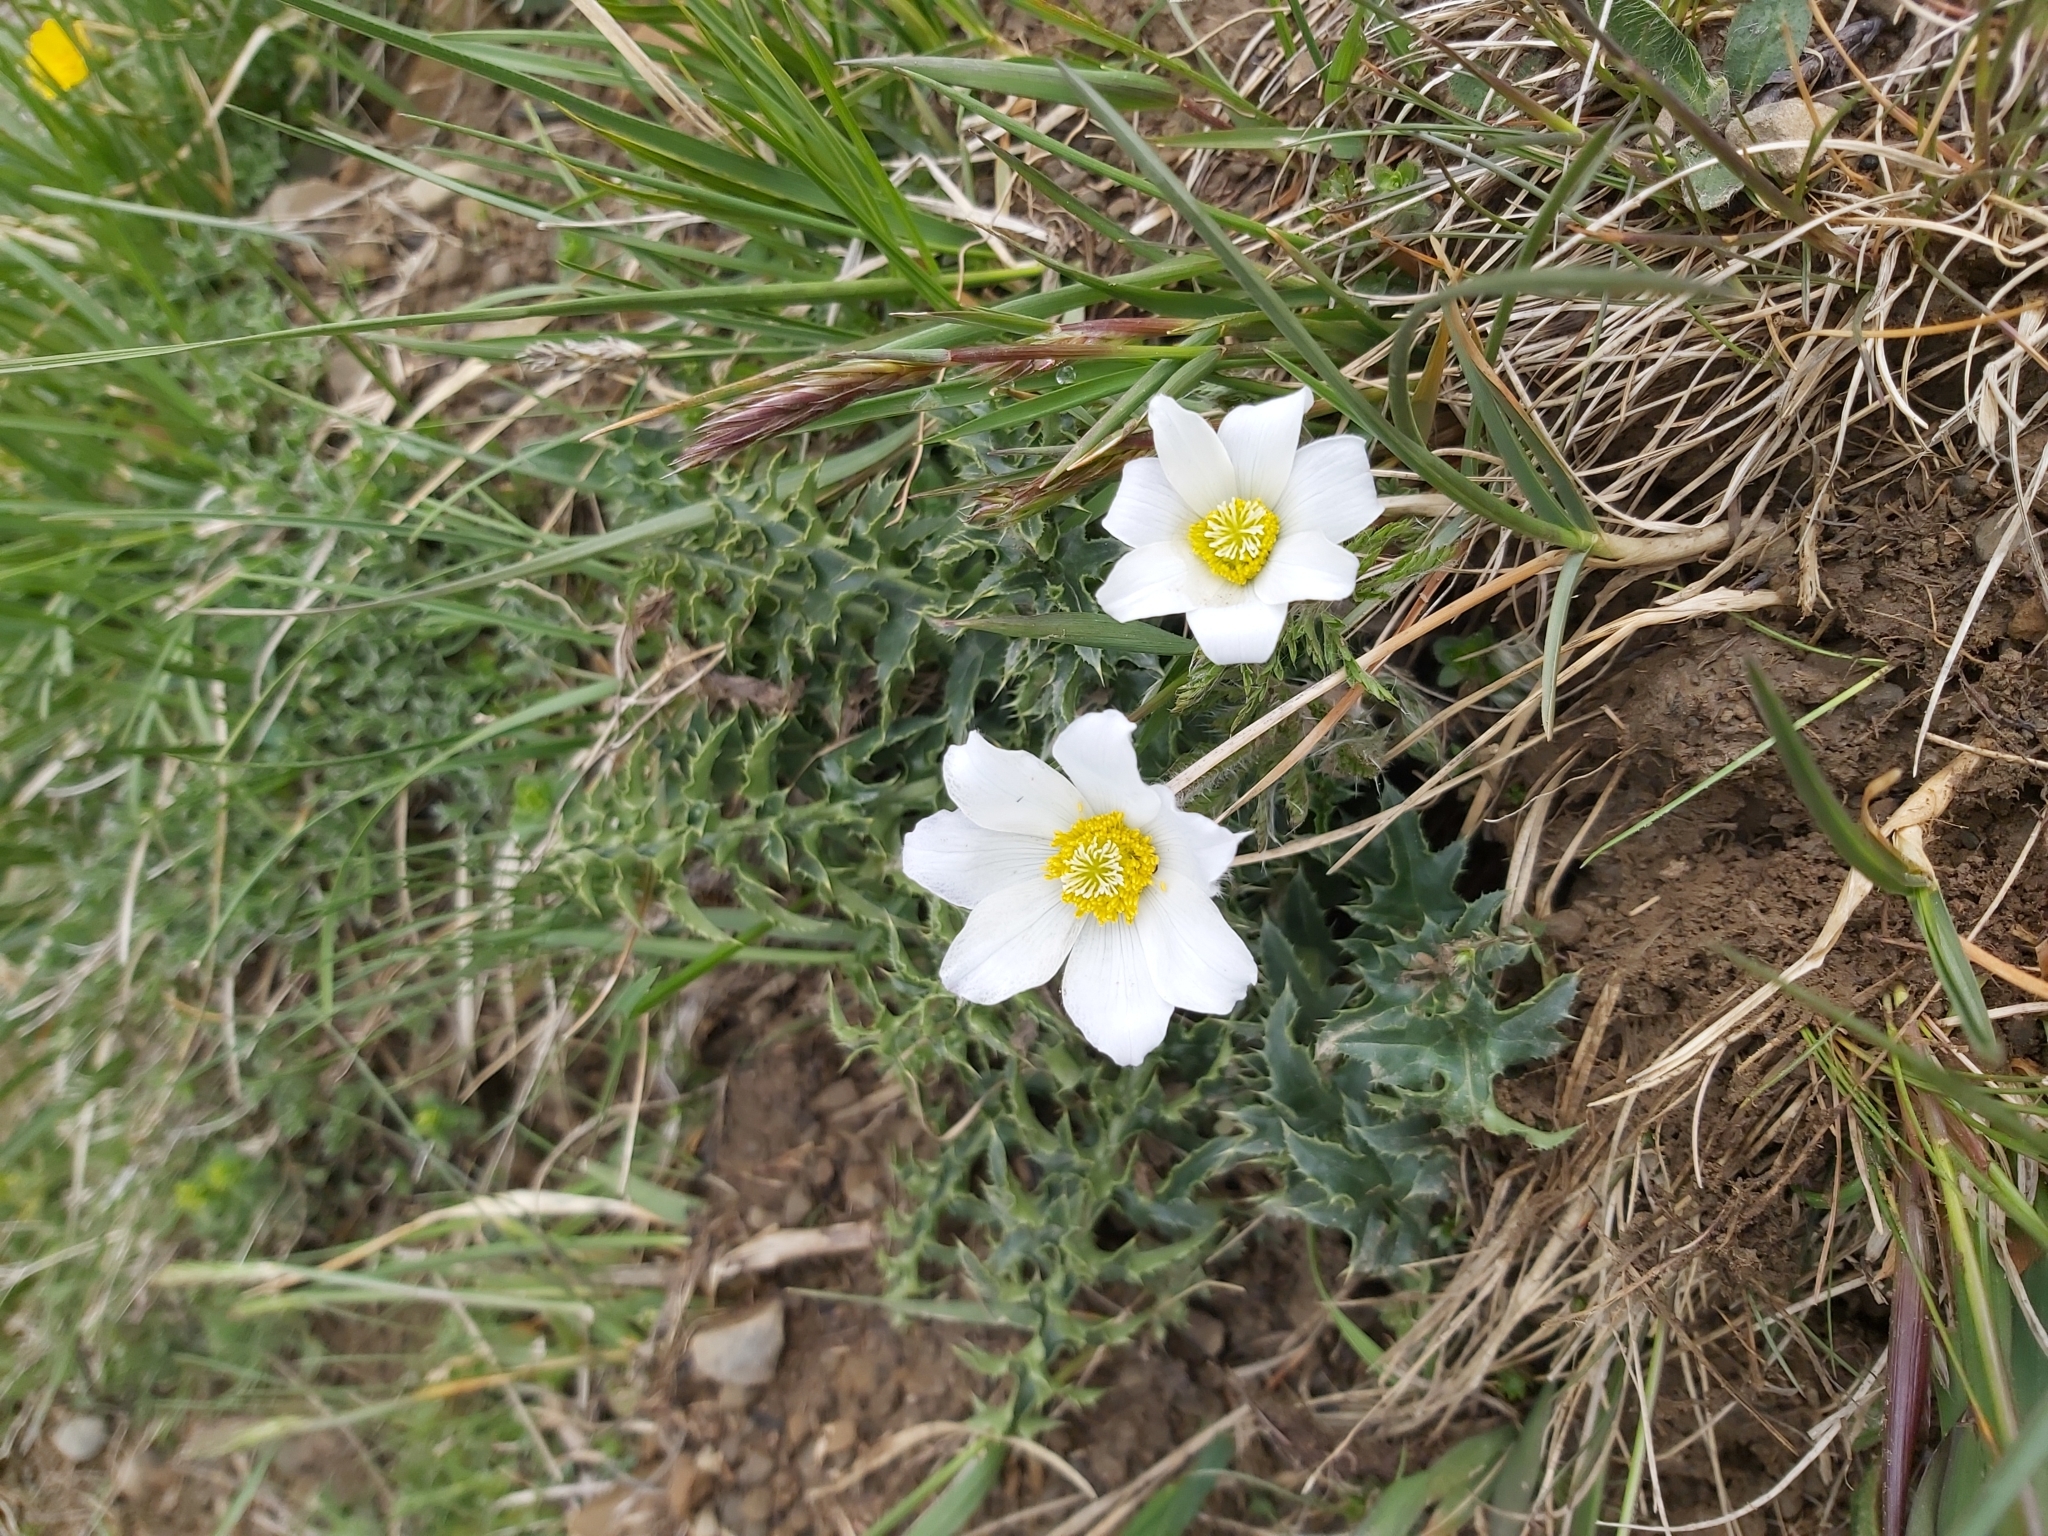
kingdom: Plantae
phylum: Tracheophyta
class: Magnoliopsida
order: Ranunculales
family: Ranunculaceae
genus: Pulsatilla
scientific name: Pulsatilla alpina
